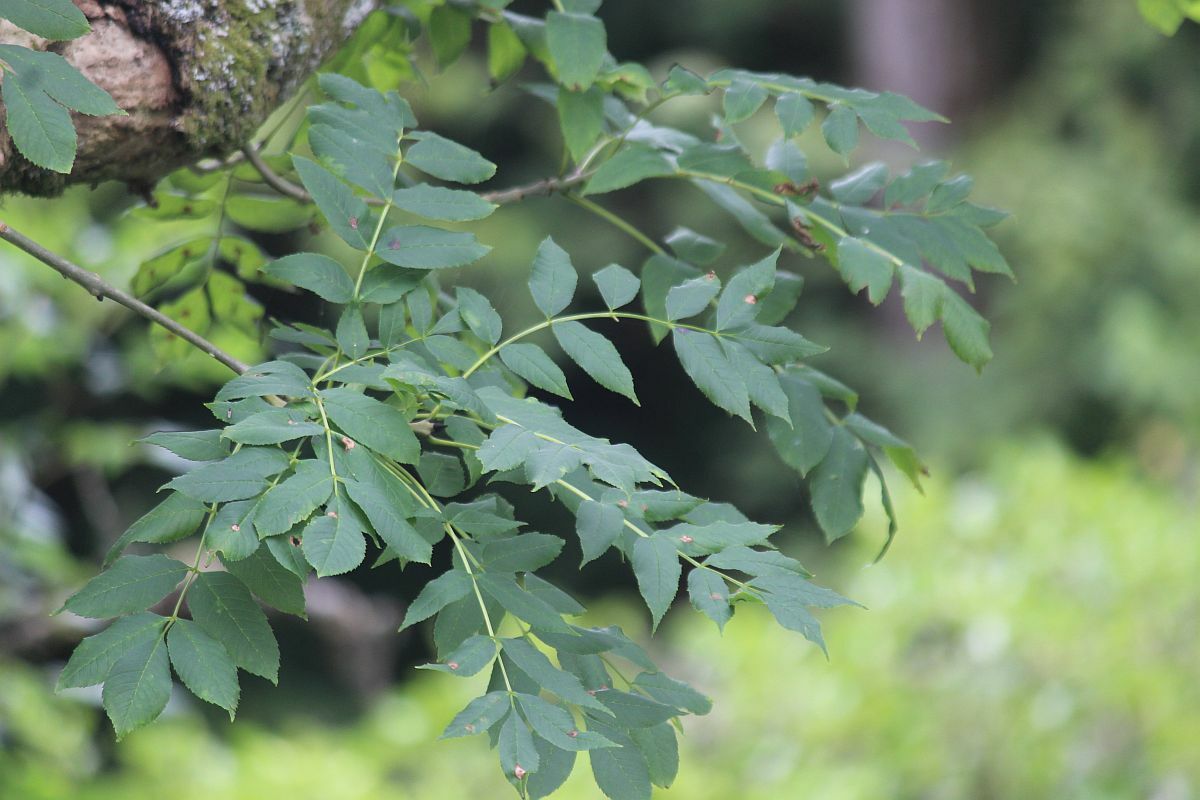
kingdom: Plantae
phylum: Tracheophyta
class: Magnoliopsida
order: Lamiales
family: Oleaceae
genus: Fraxinus
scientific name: Fraxinus excelsior
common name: European ash
